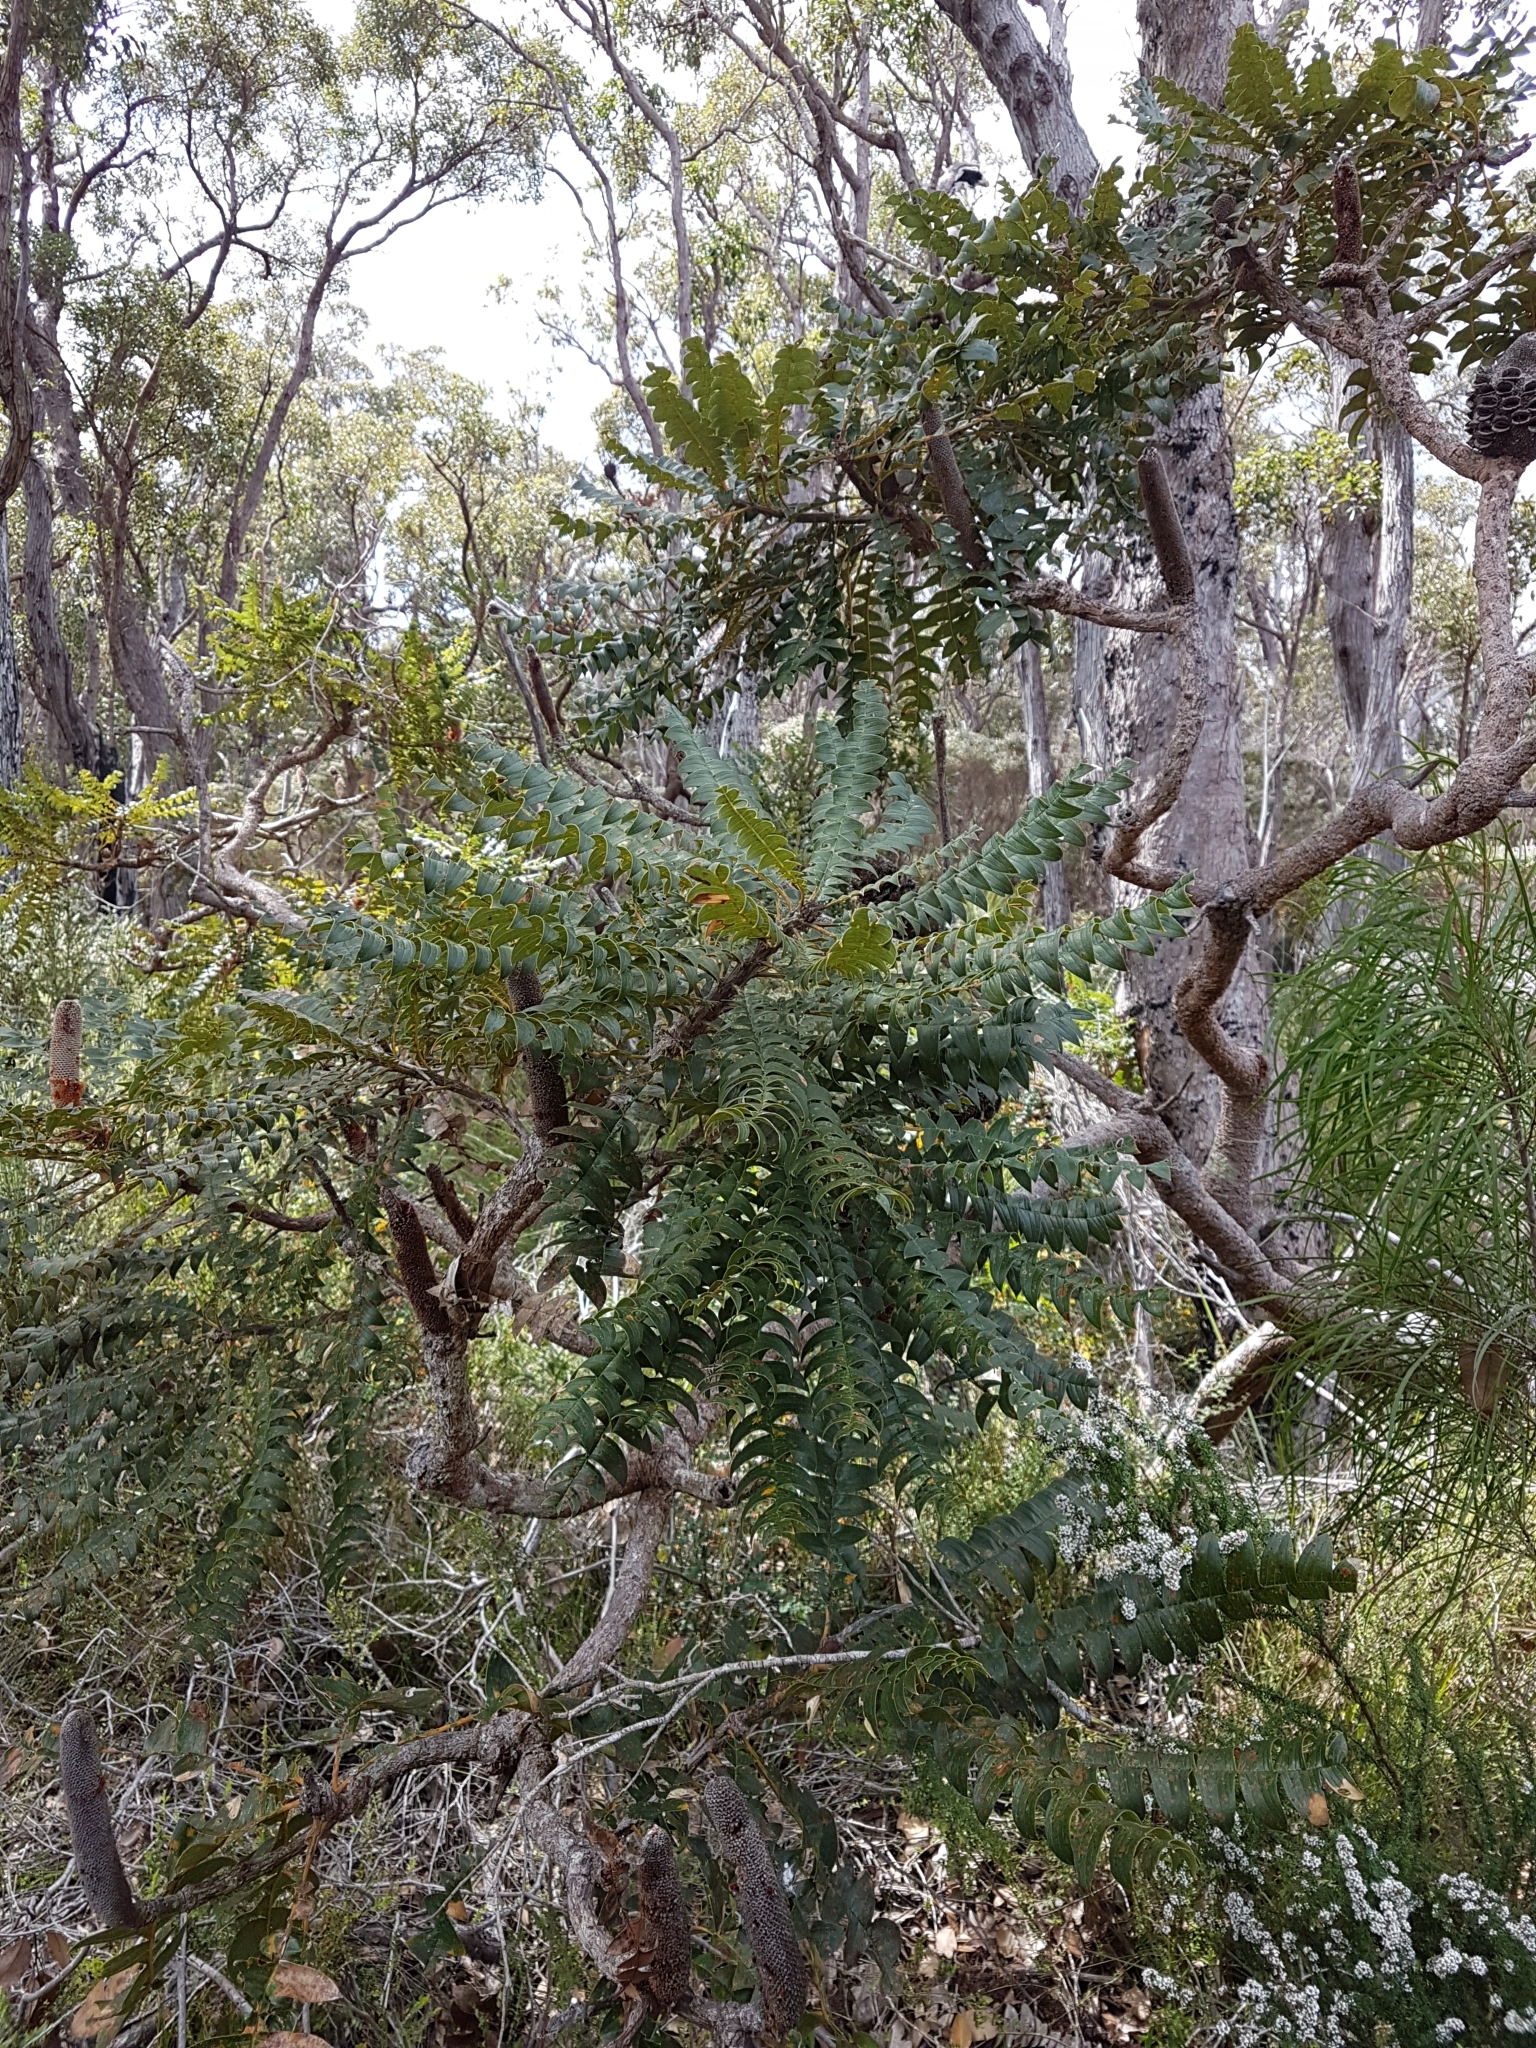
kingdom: Plantae
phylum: Tracheophyta
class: Magnoliopsida
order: Proteales
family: Proteaceae
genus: Banksia
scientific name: Banksia grandis
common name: Giant banksia
